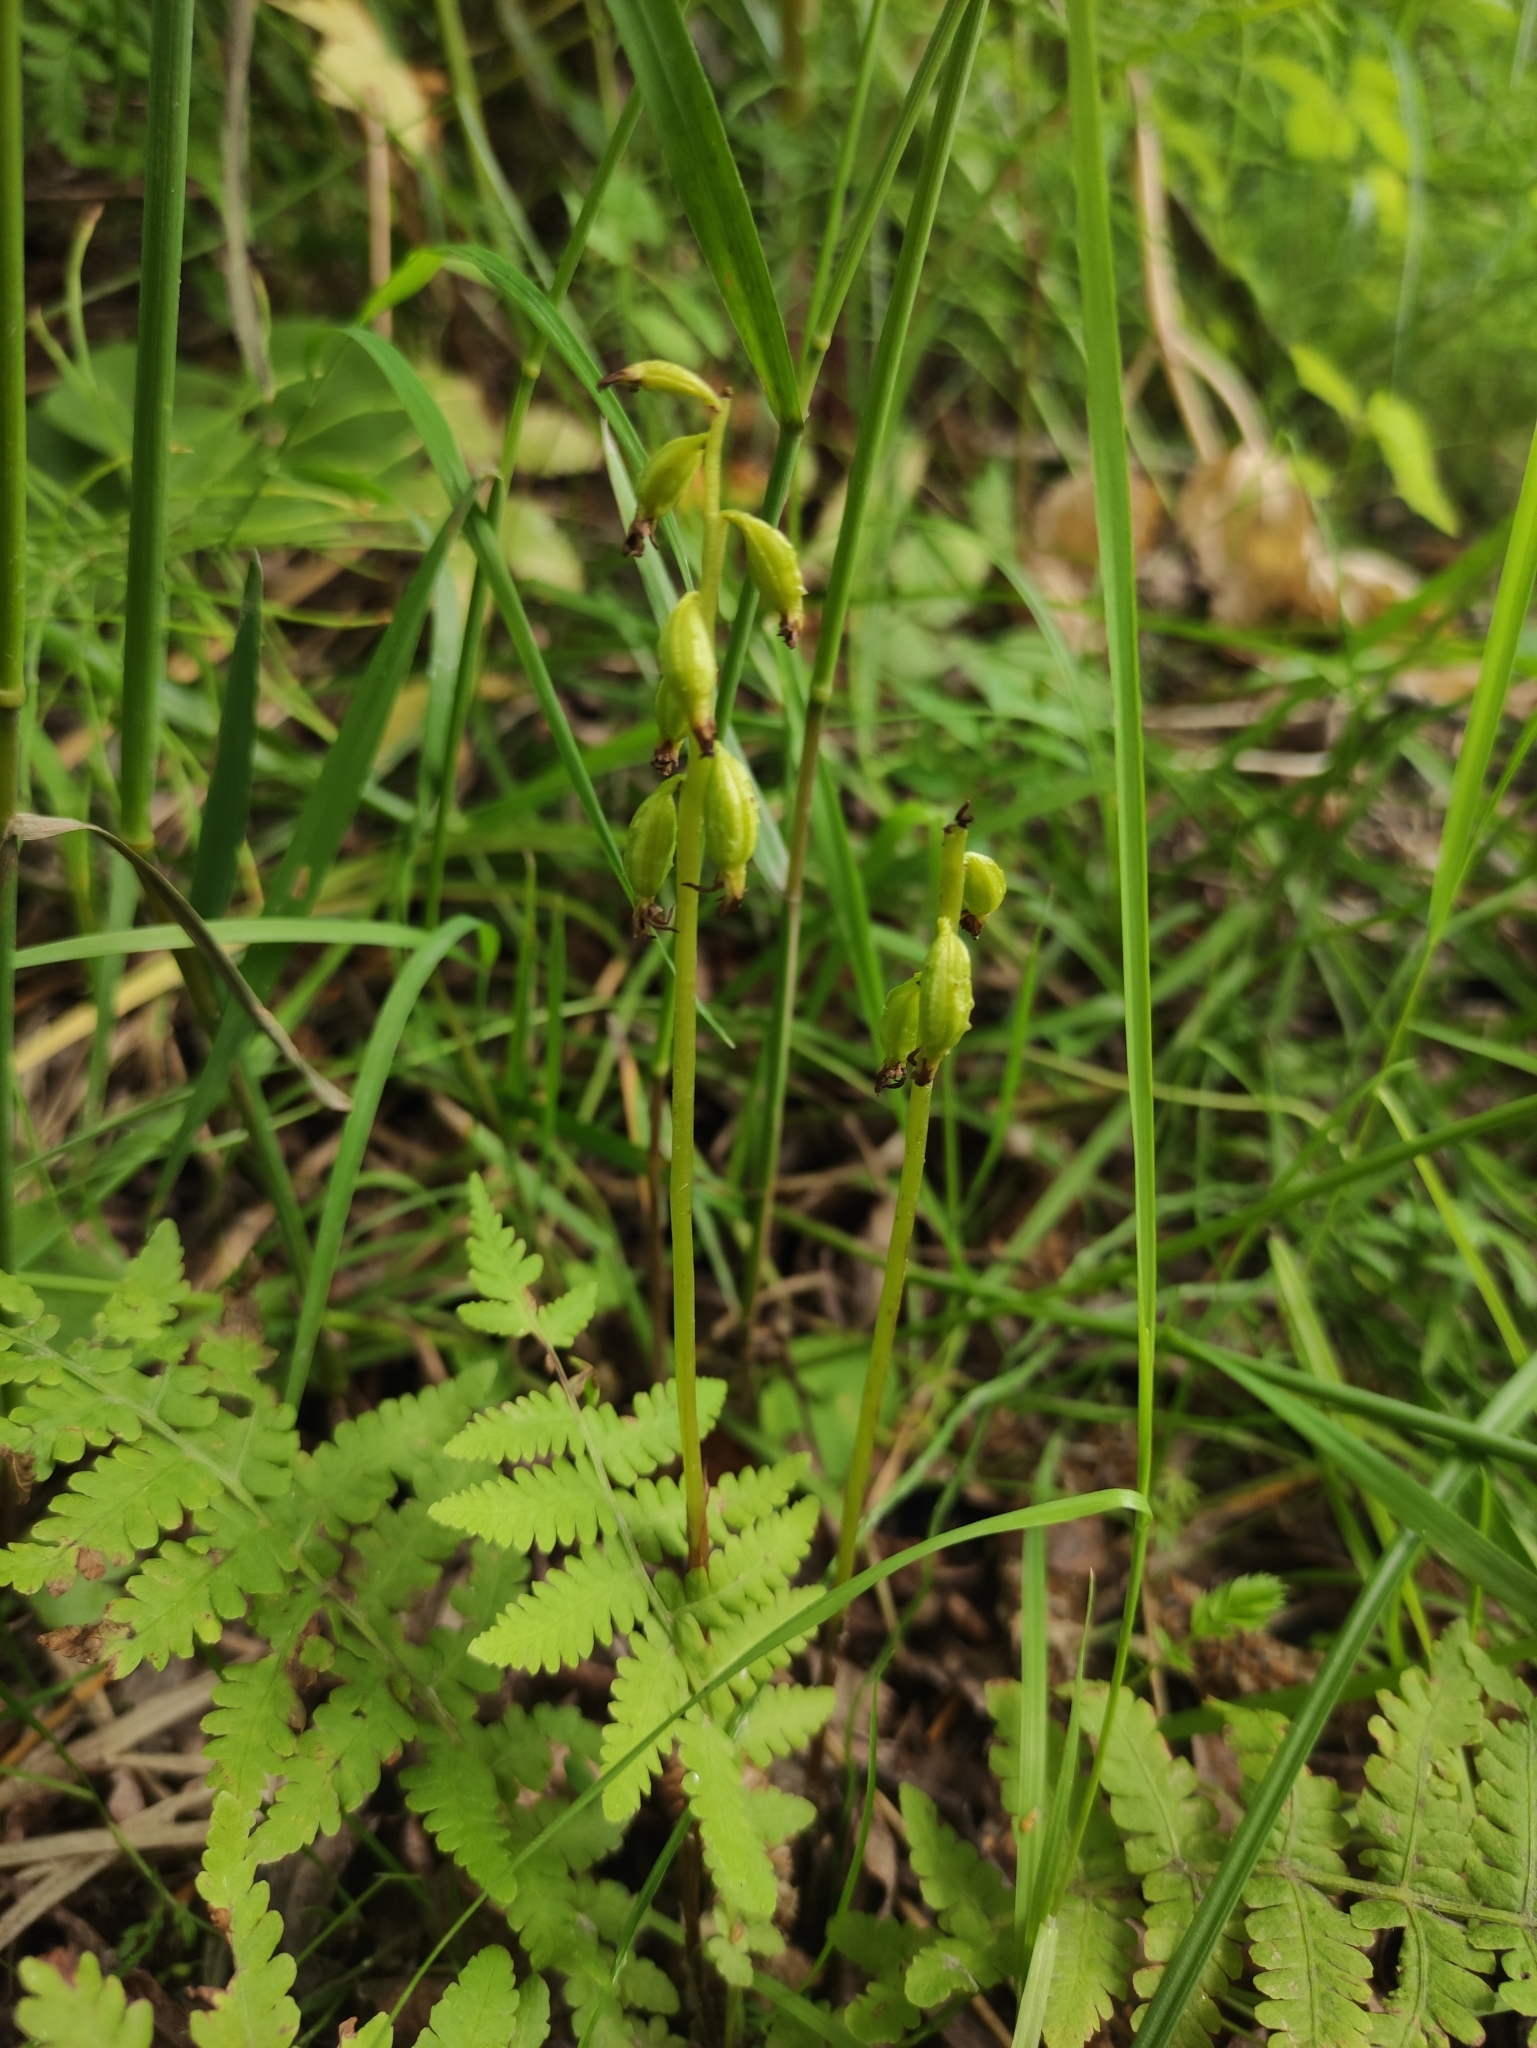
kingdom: Plantae
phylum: Tracheophyta
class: Liliopsida
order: Asparagales
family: Orchidaceae
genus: Corallorhiza
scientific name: Corallorhiza trifida
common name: Yellow coralroot
